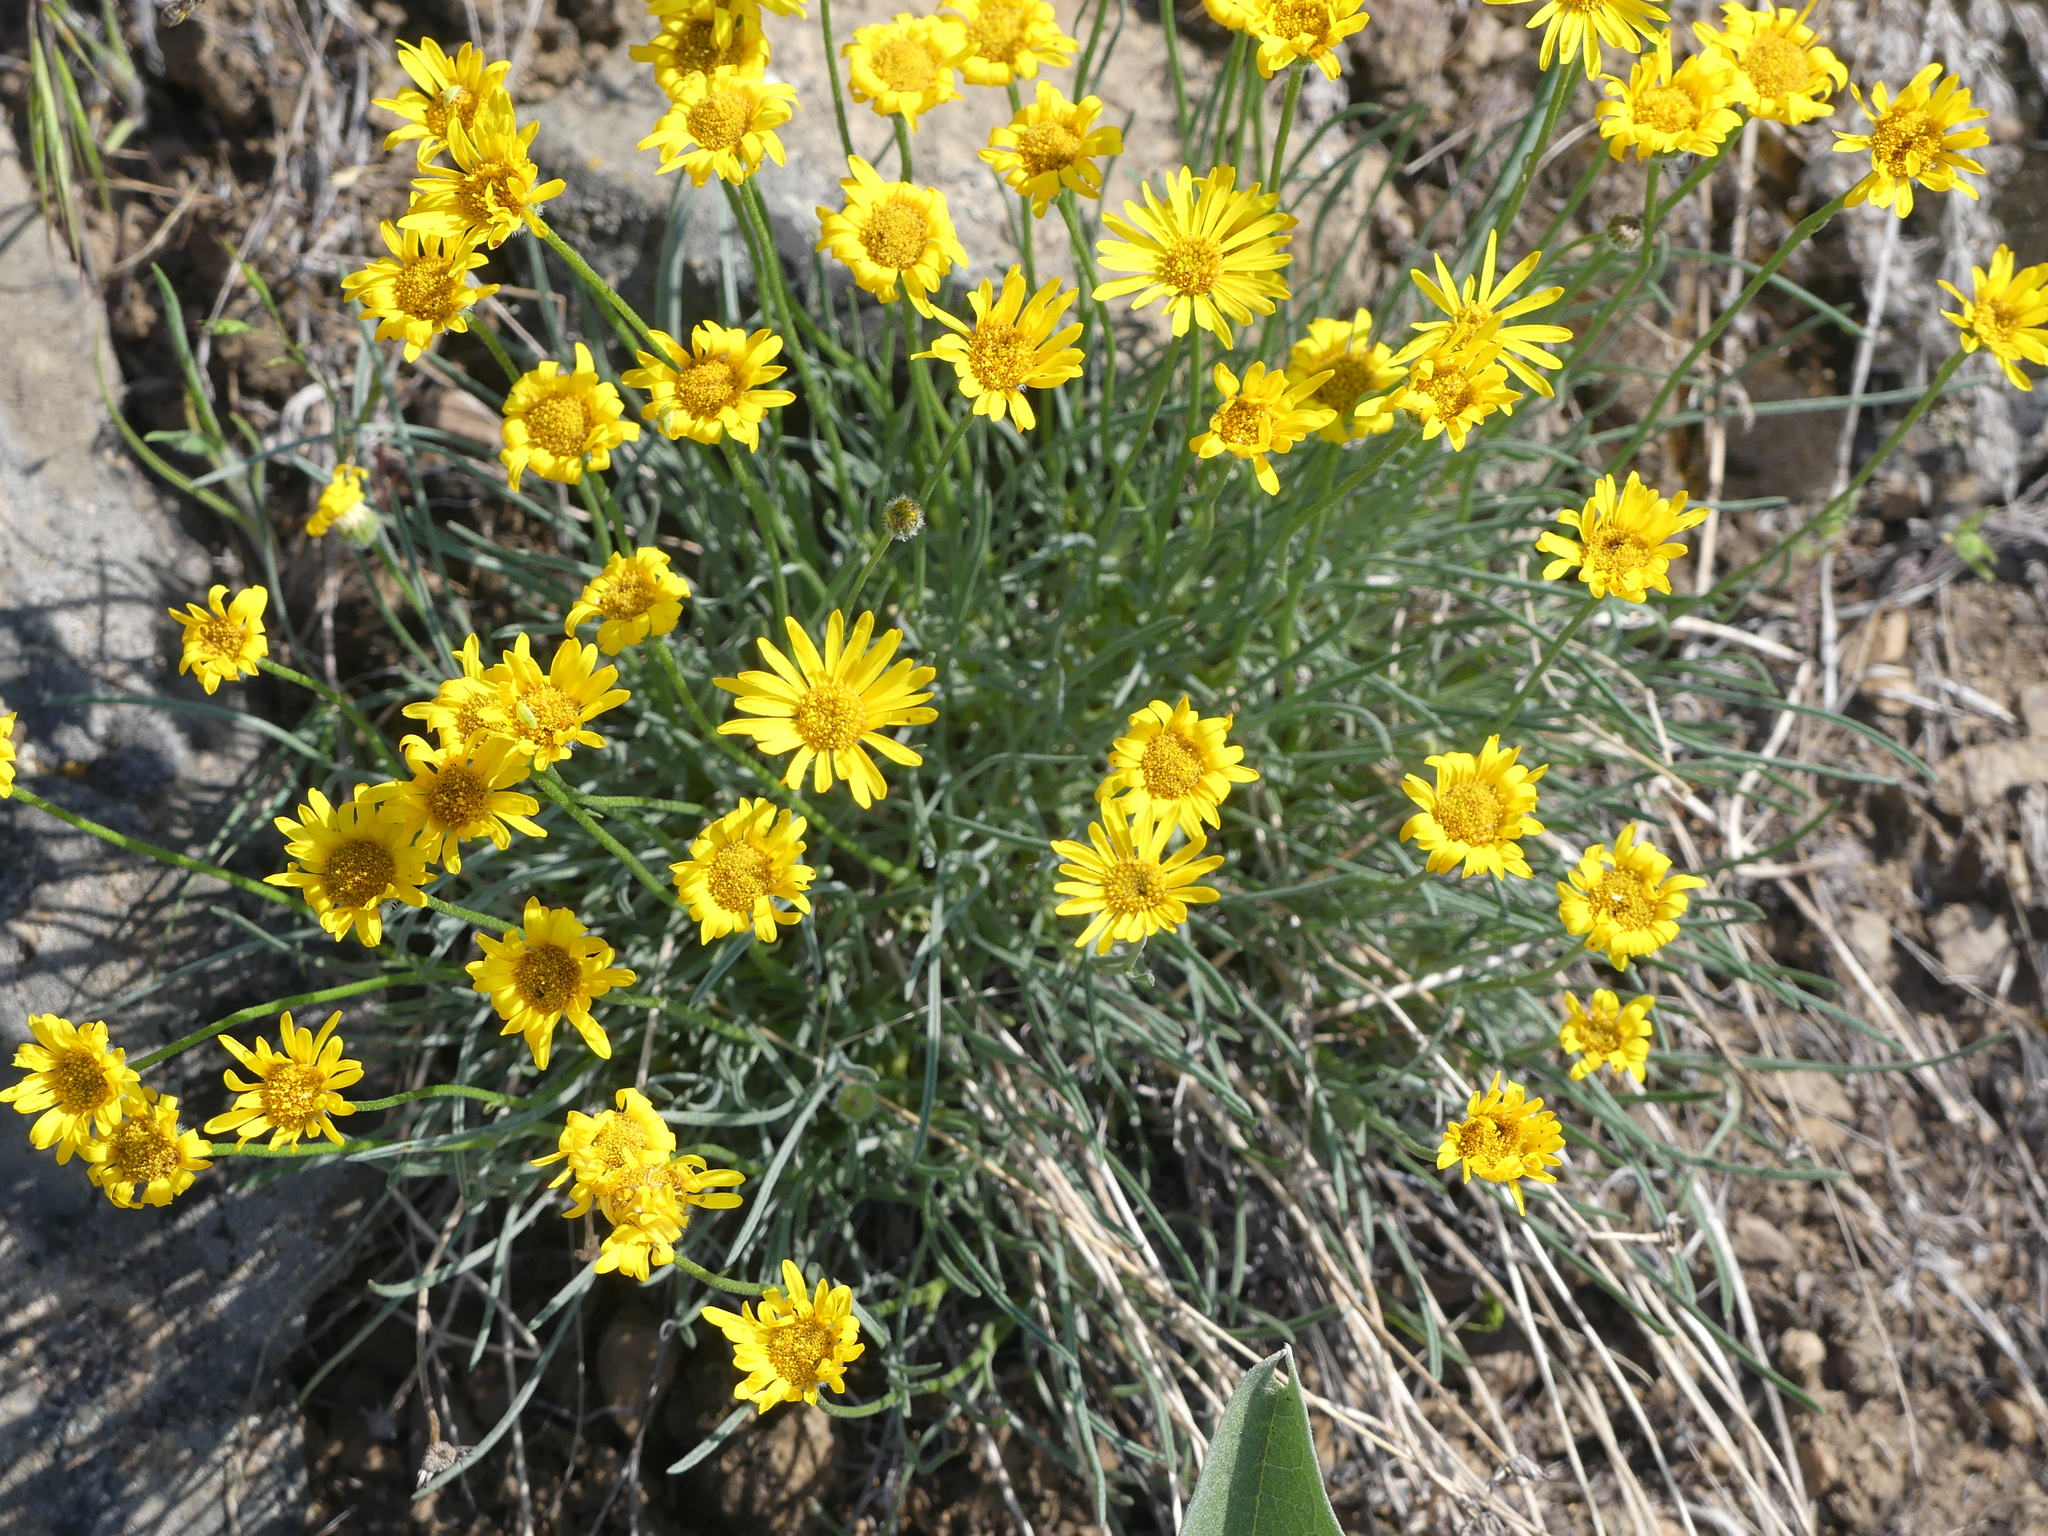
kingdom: Plantae
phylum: Tracheophyta
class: Magnoliopsida
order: Asterales
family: Asteraceae
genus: Erigeron
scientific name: Erigeron linearis
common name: Desert yellow fleabane
